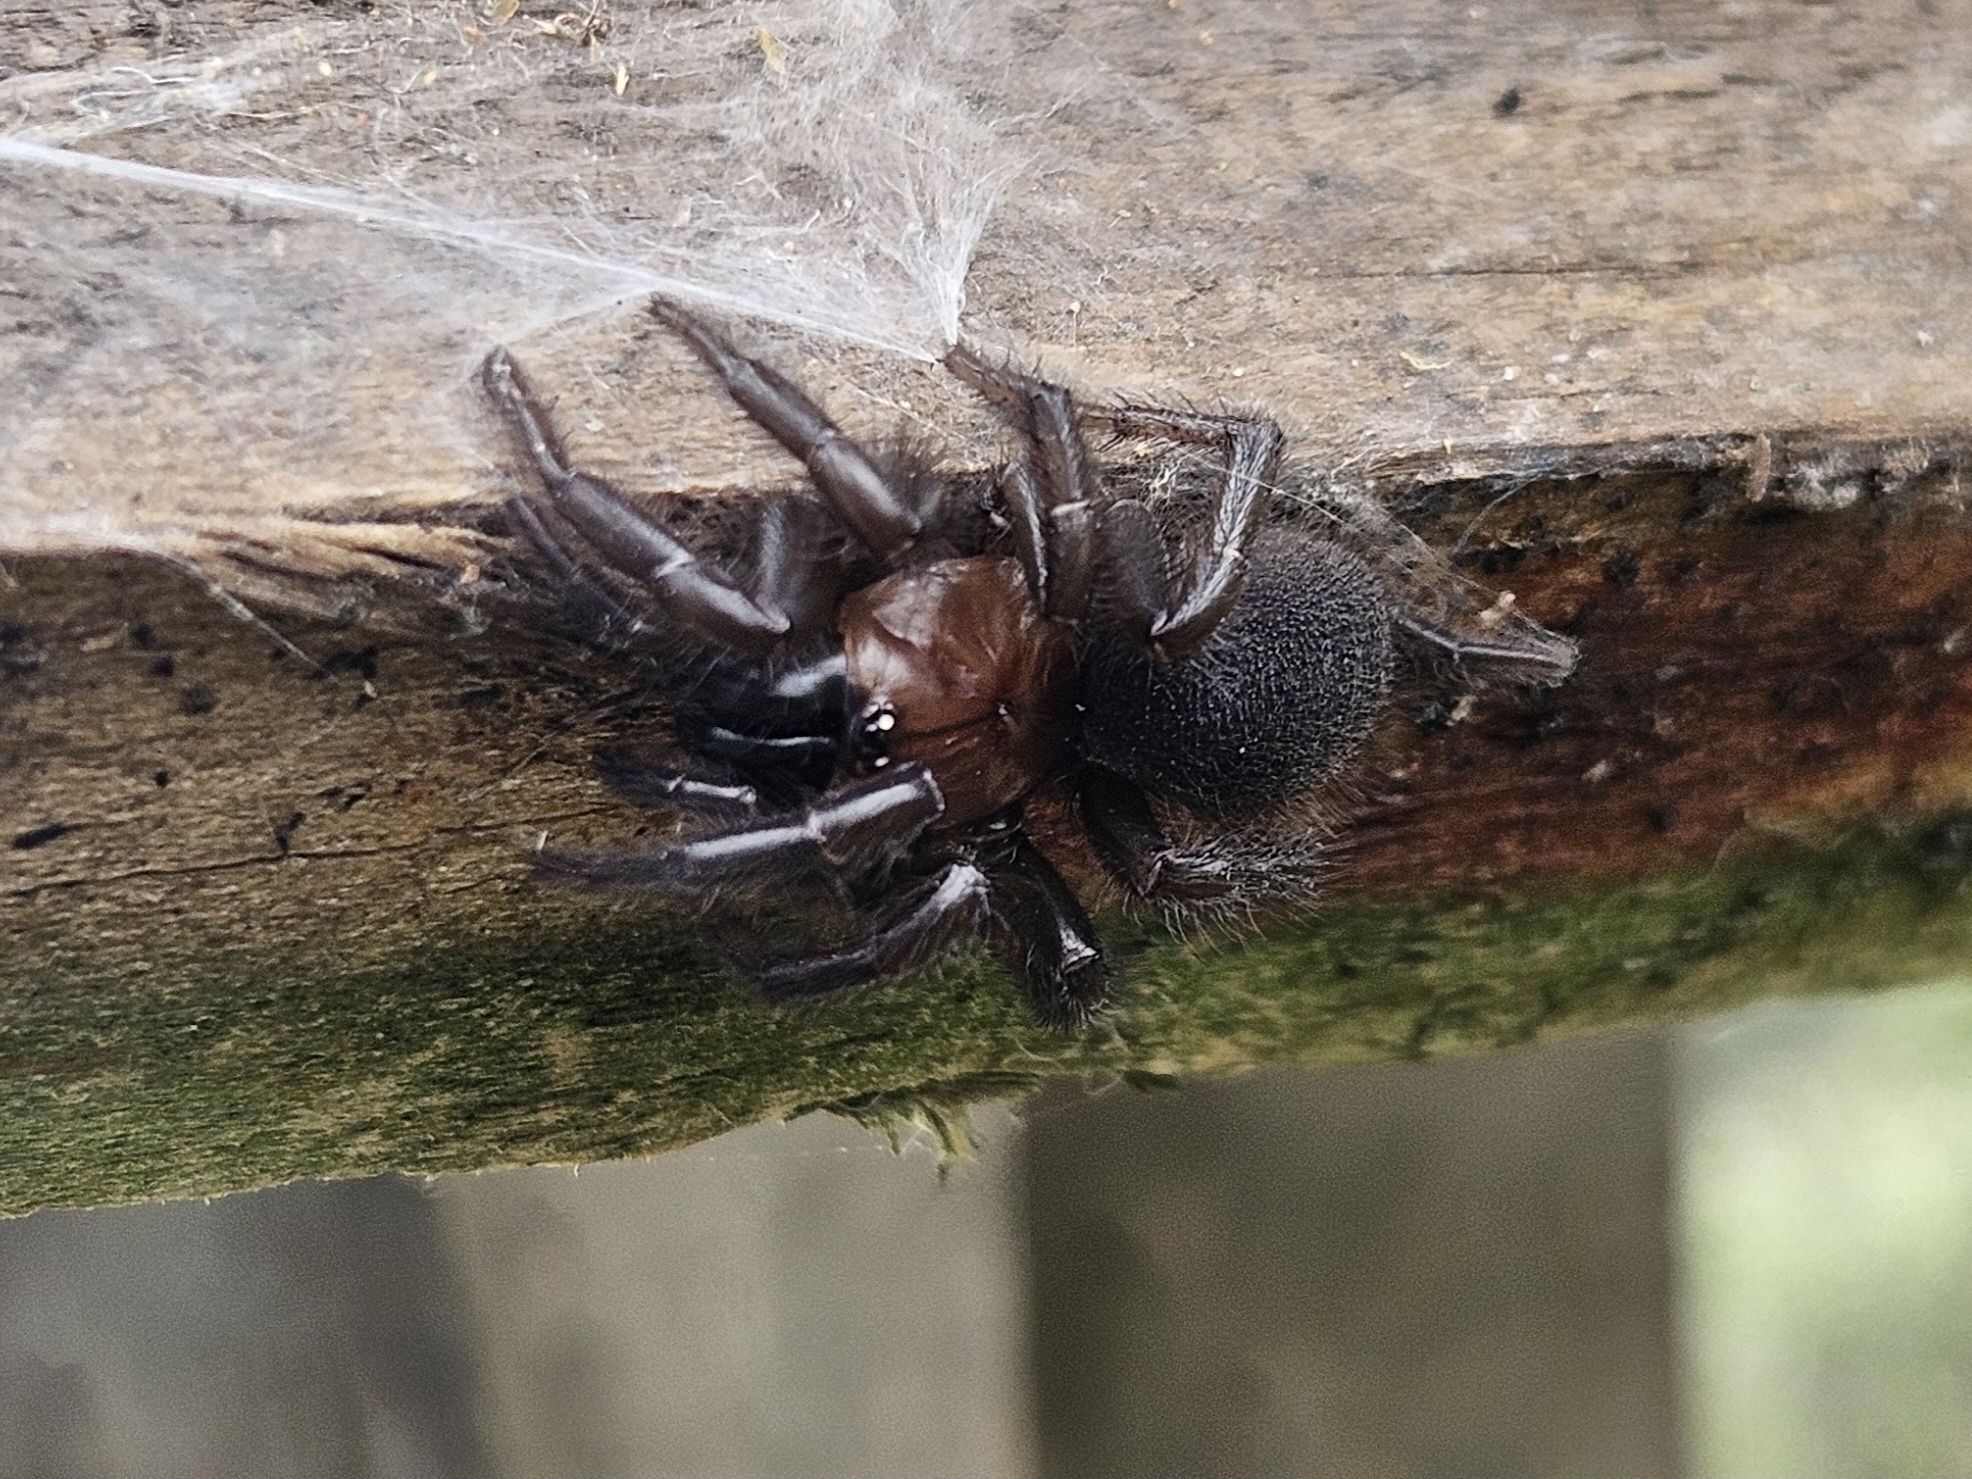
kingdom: Animalia
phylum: Arthropoda
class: Arachnida
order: Araneae
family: Porrhothelidae
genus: Porrhothele
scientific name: Porrhothele antipodiana
